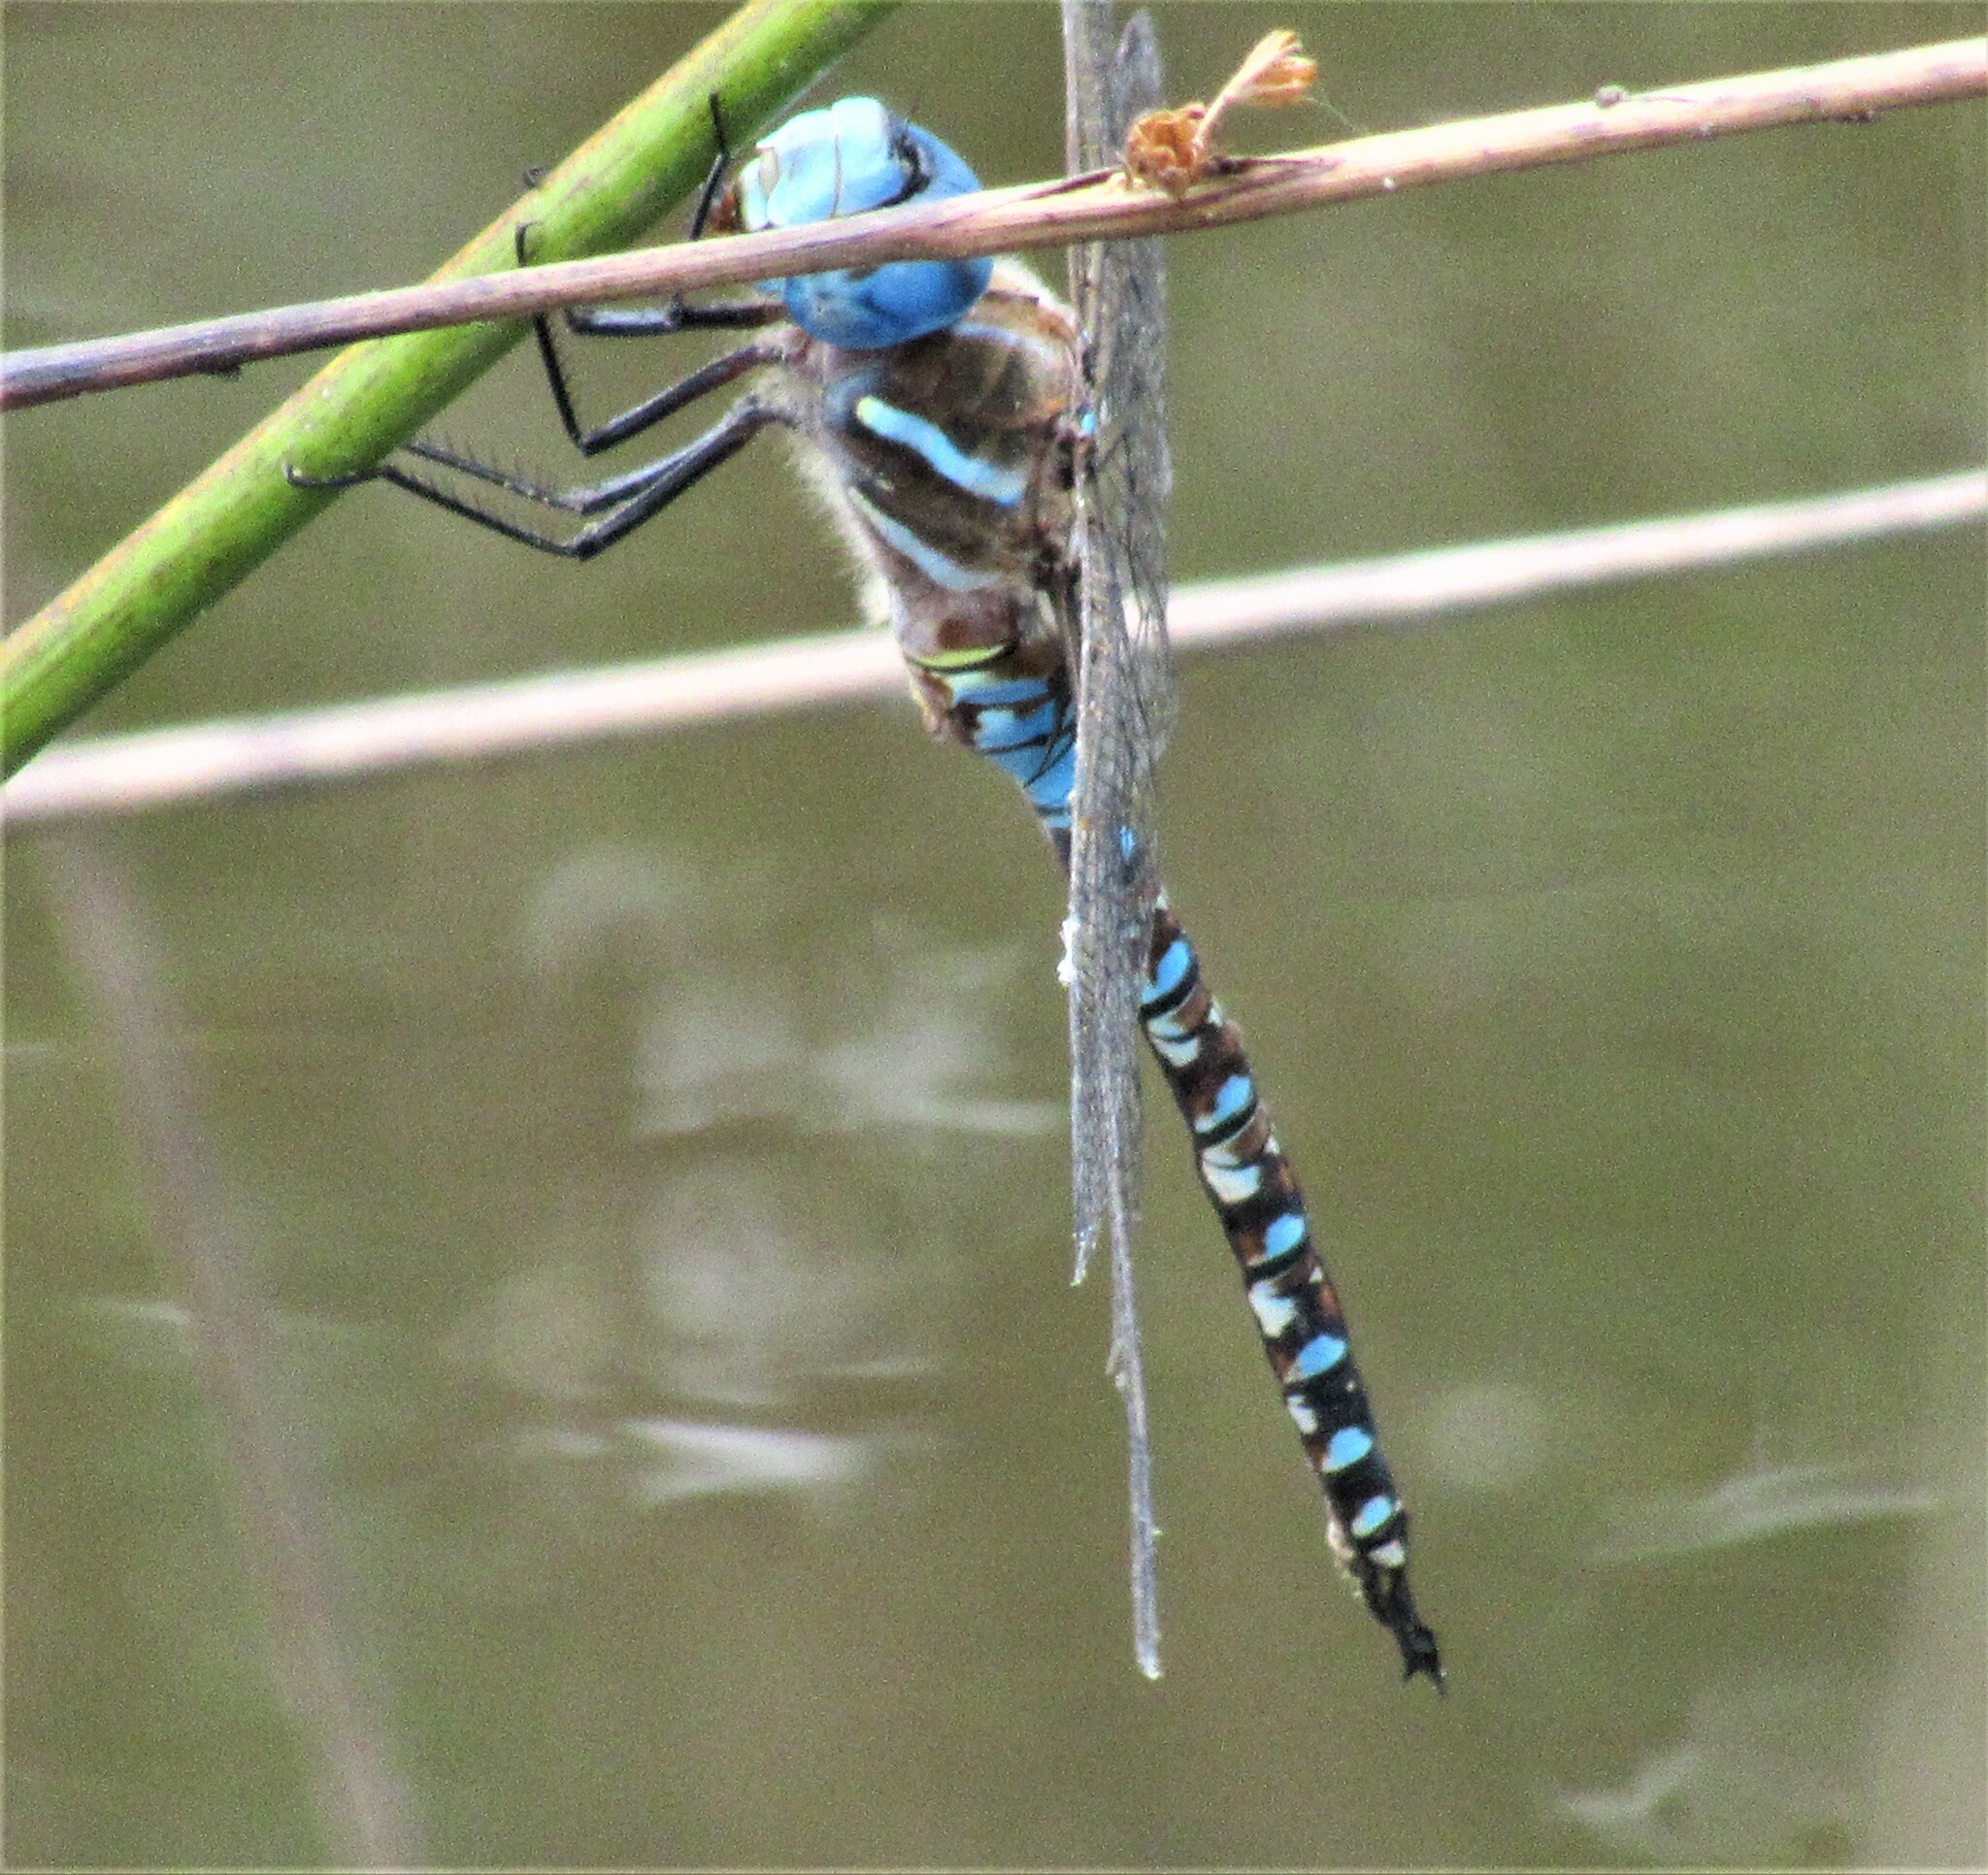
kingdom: Animalia
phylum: Arthropoda
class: Insecta
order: Odonata
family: Aeshnidae
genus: Rhionaeschna
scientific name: Rhionaeschna multicolor
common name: Blue-eyed darner
